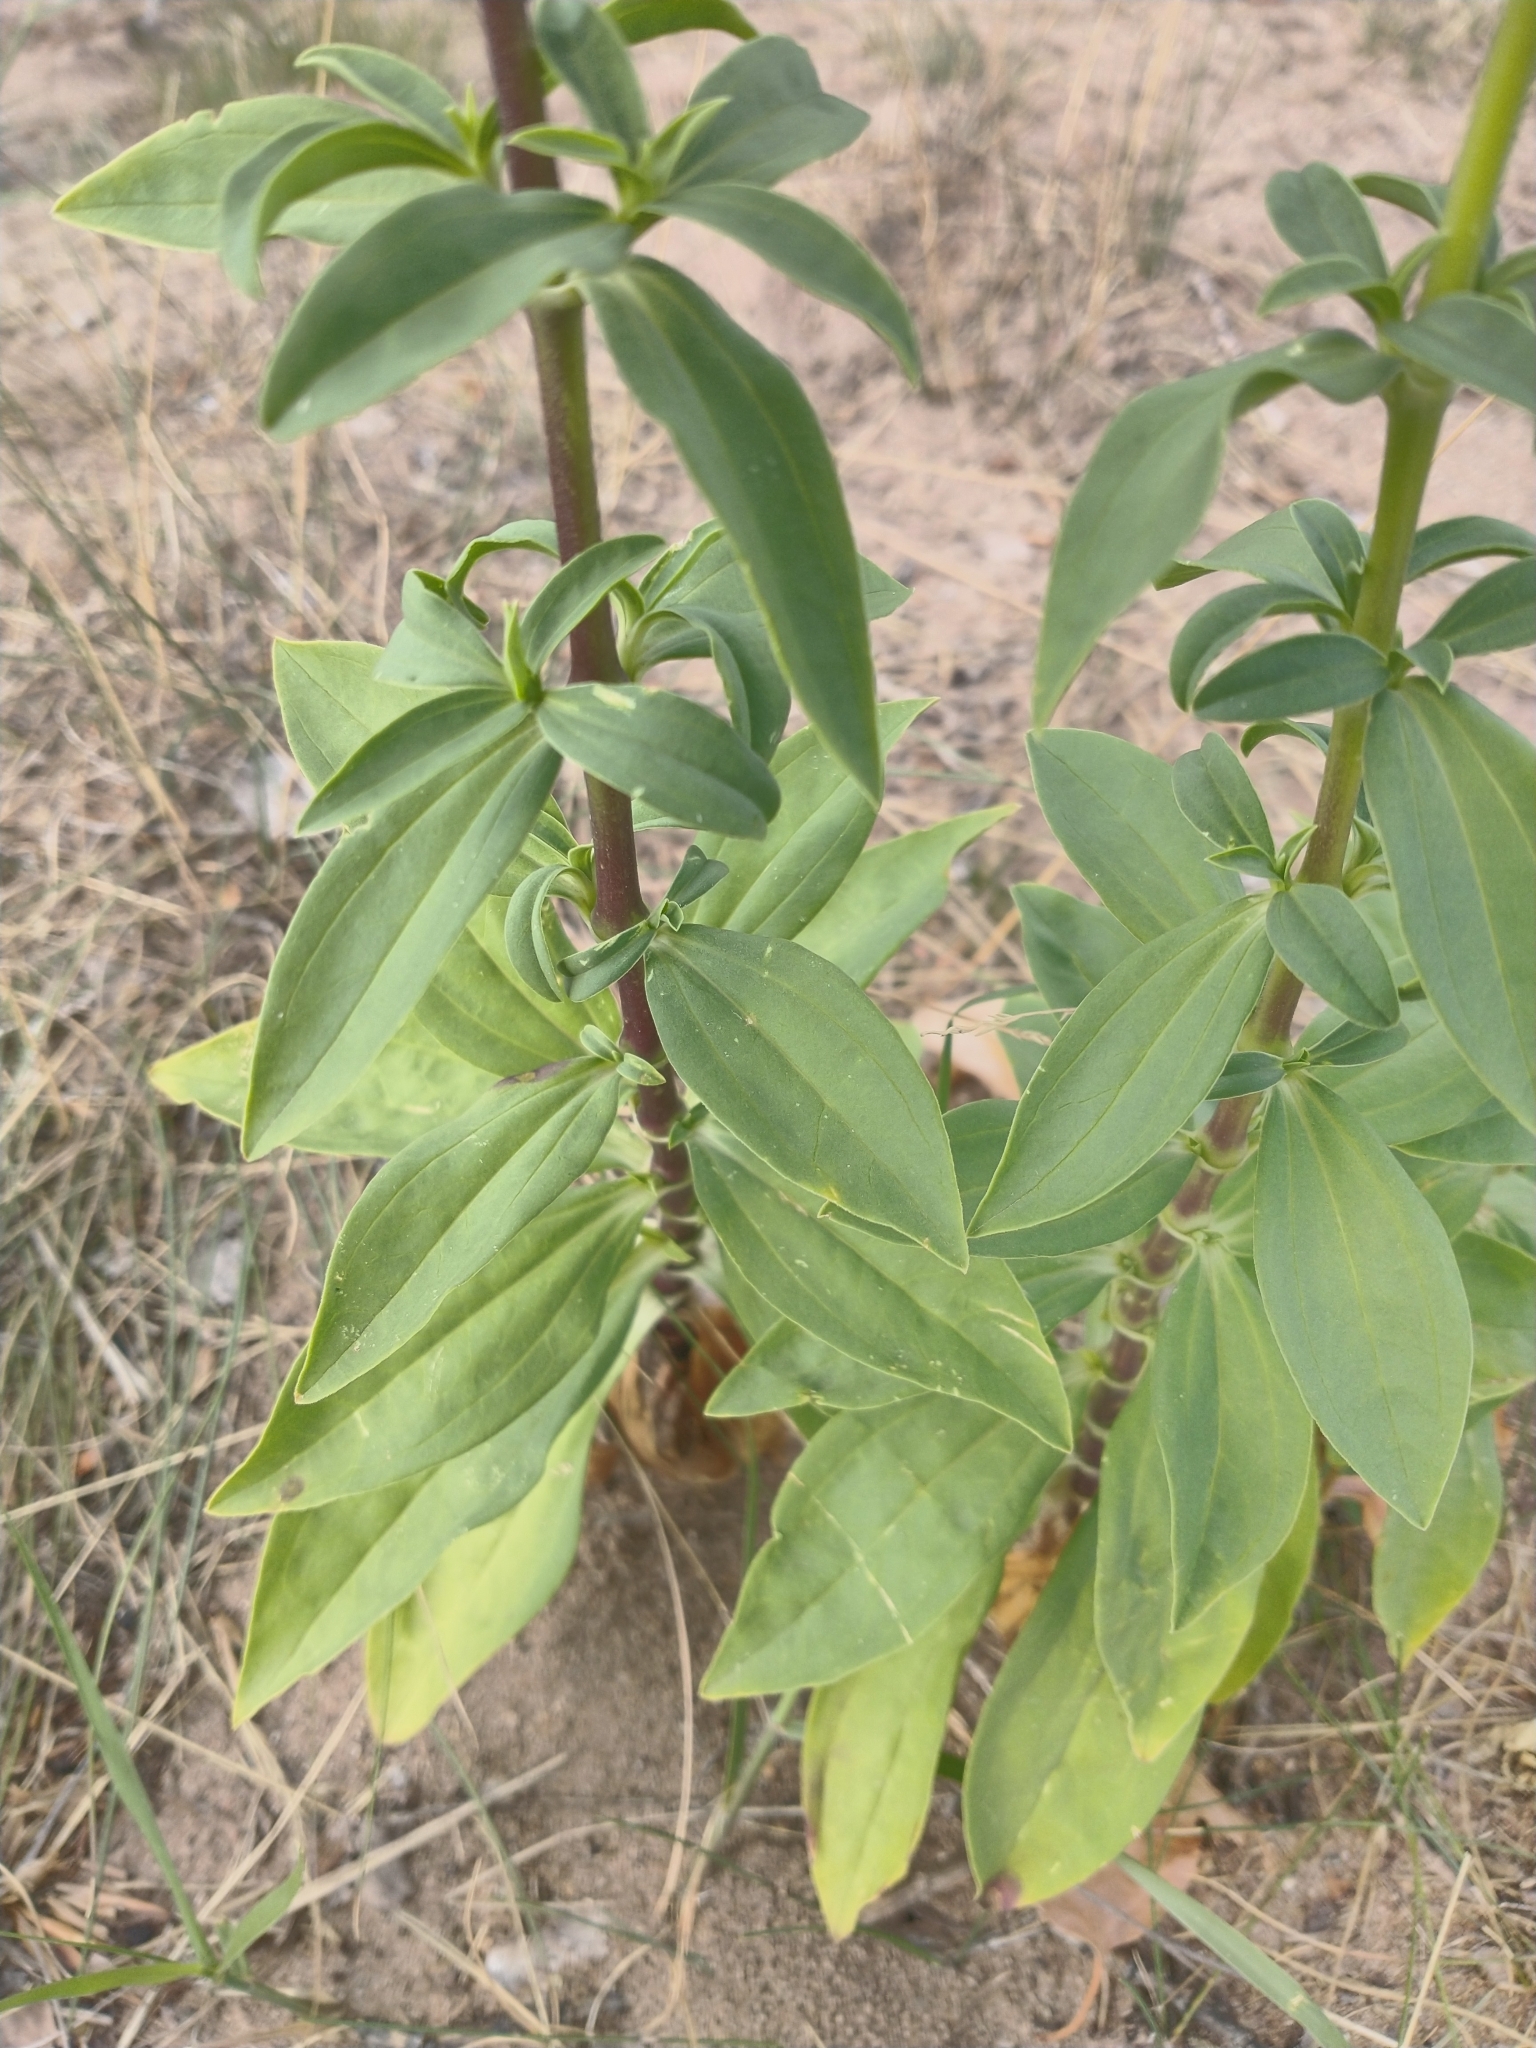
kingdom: Plantae
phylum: Tracheophyta
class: Magnoliopsida
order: Caryophyllales
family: Caryophyllaceae
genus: Saponaria
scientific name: Saponaria officinalis
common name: Soapwort
